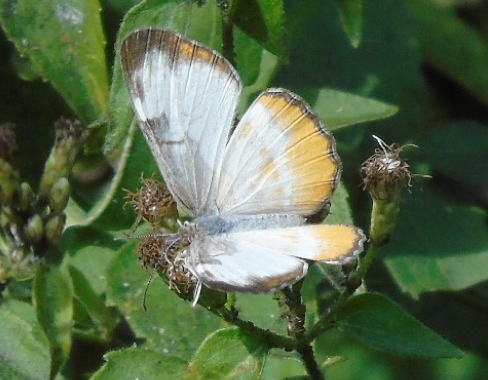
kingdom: Animalia
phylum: Arthropoda
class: Insecta
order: Lepidoptera
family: Nymphalidae
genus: Mestra
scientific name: Mestra amymone
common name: Common mestra
